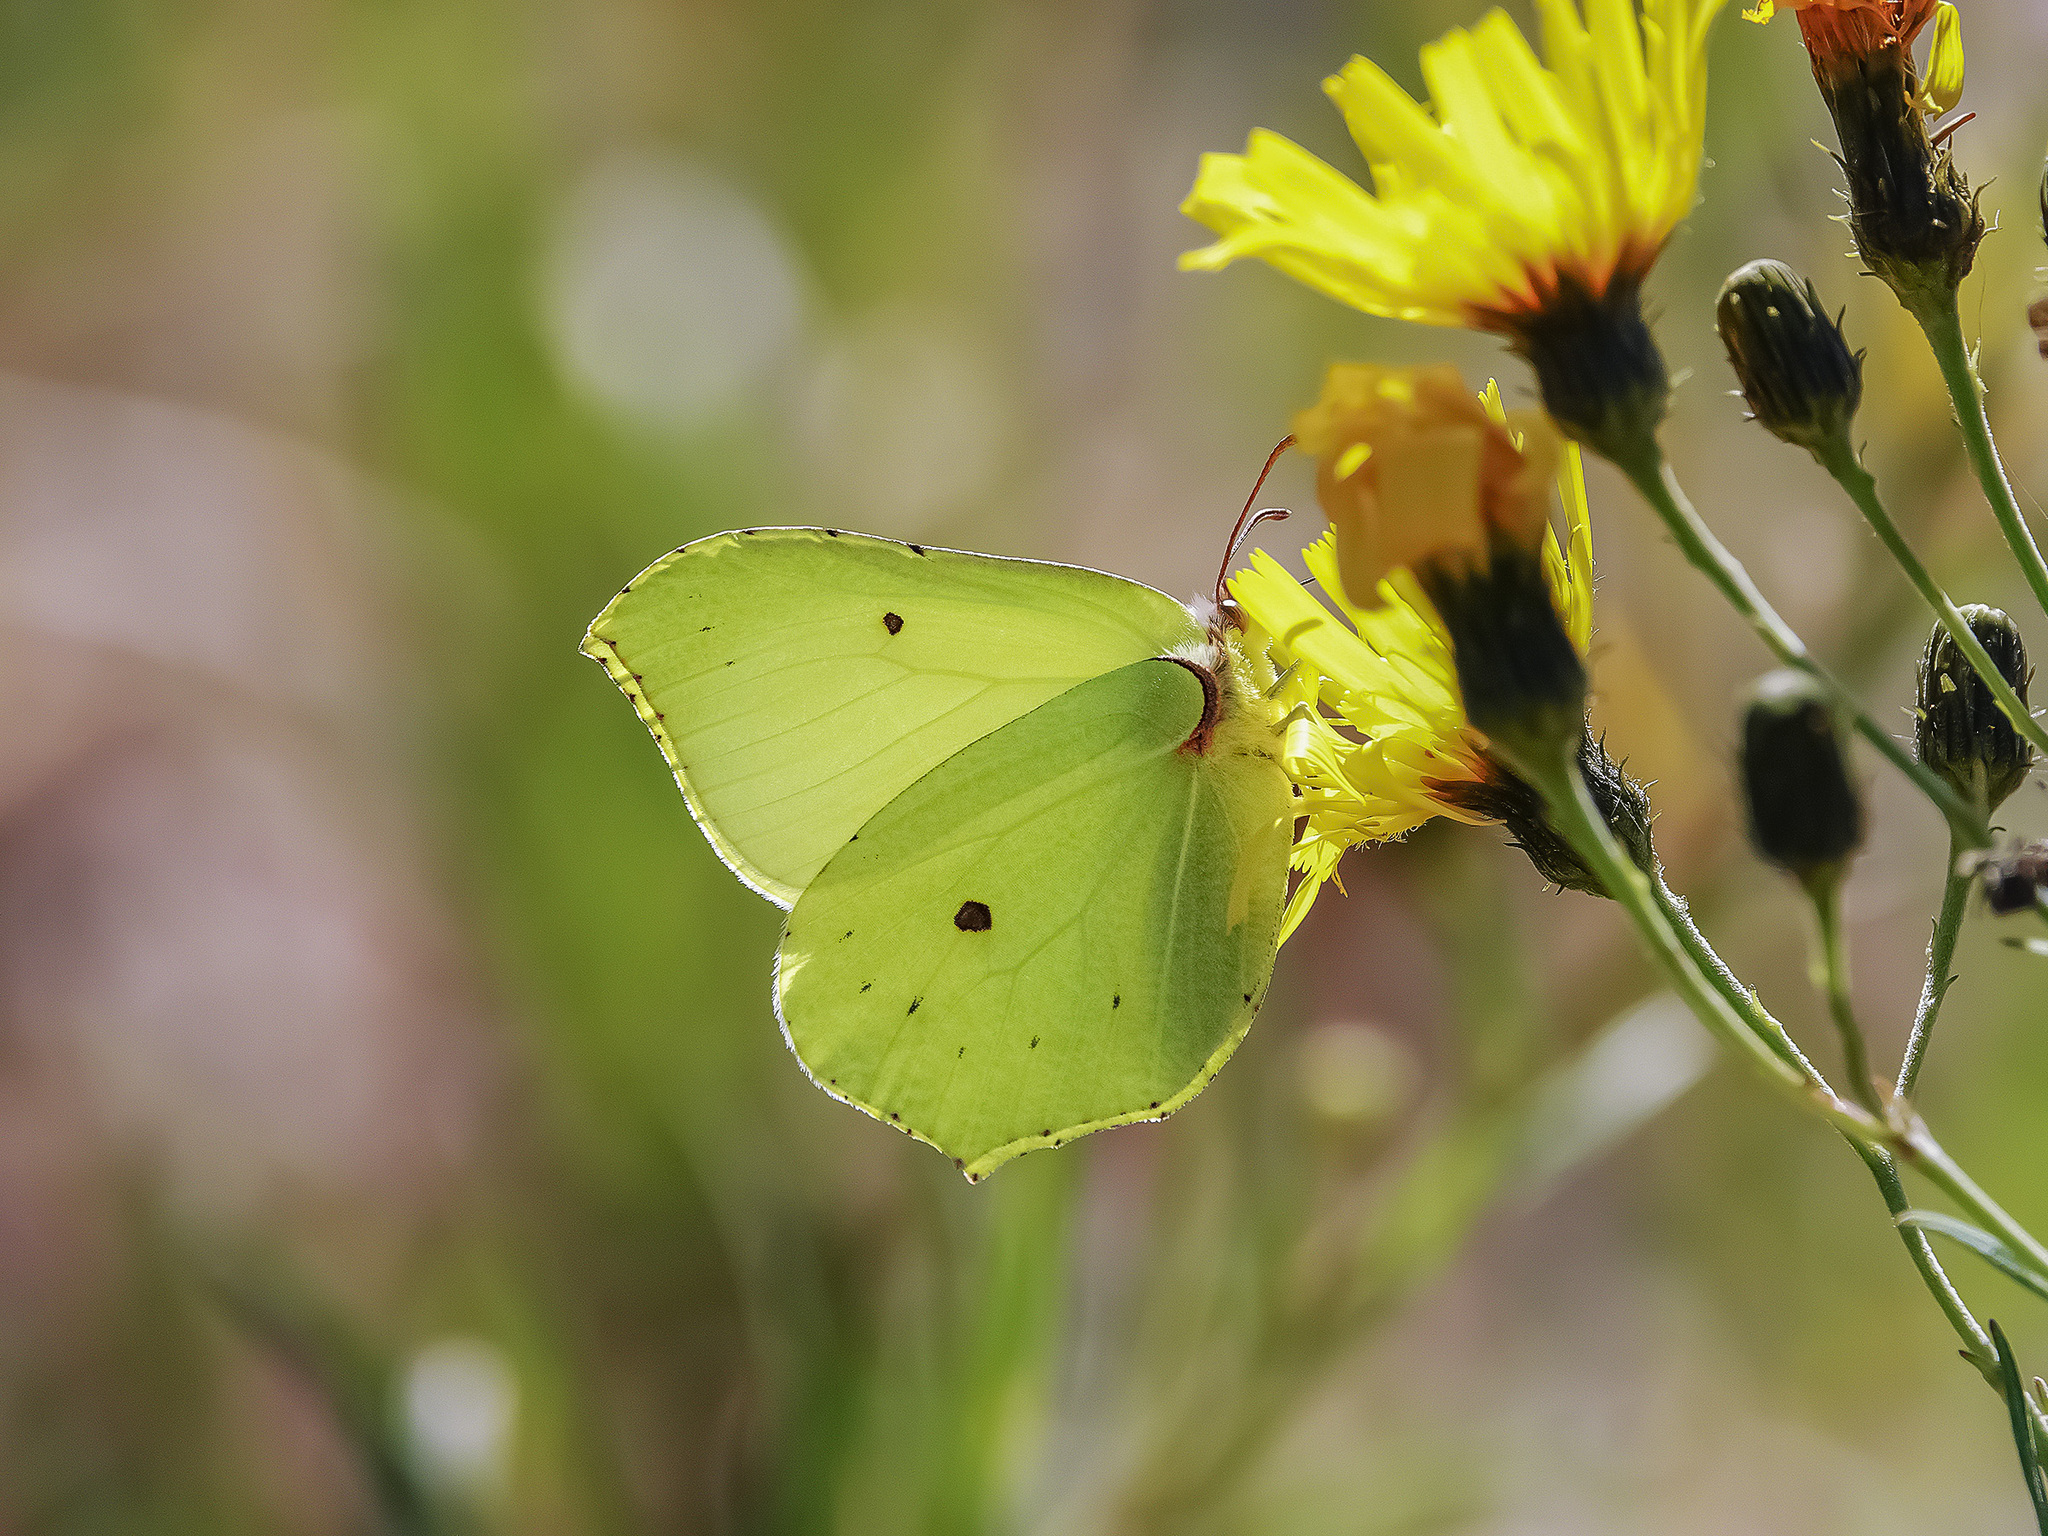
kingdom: Animalia
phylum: Arthropoda
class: Insecta
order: Lepidoptera
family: Pieridae
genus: Gonepteryx
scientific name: Gonepteryx rhamni
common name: Brimstone
